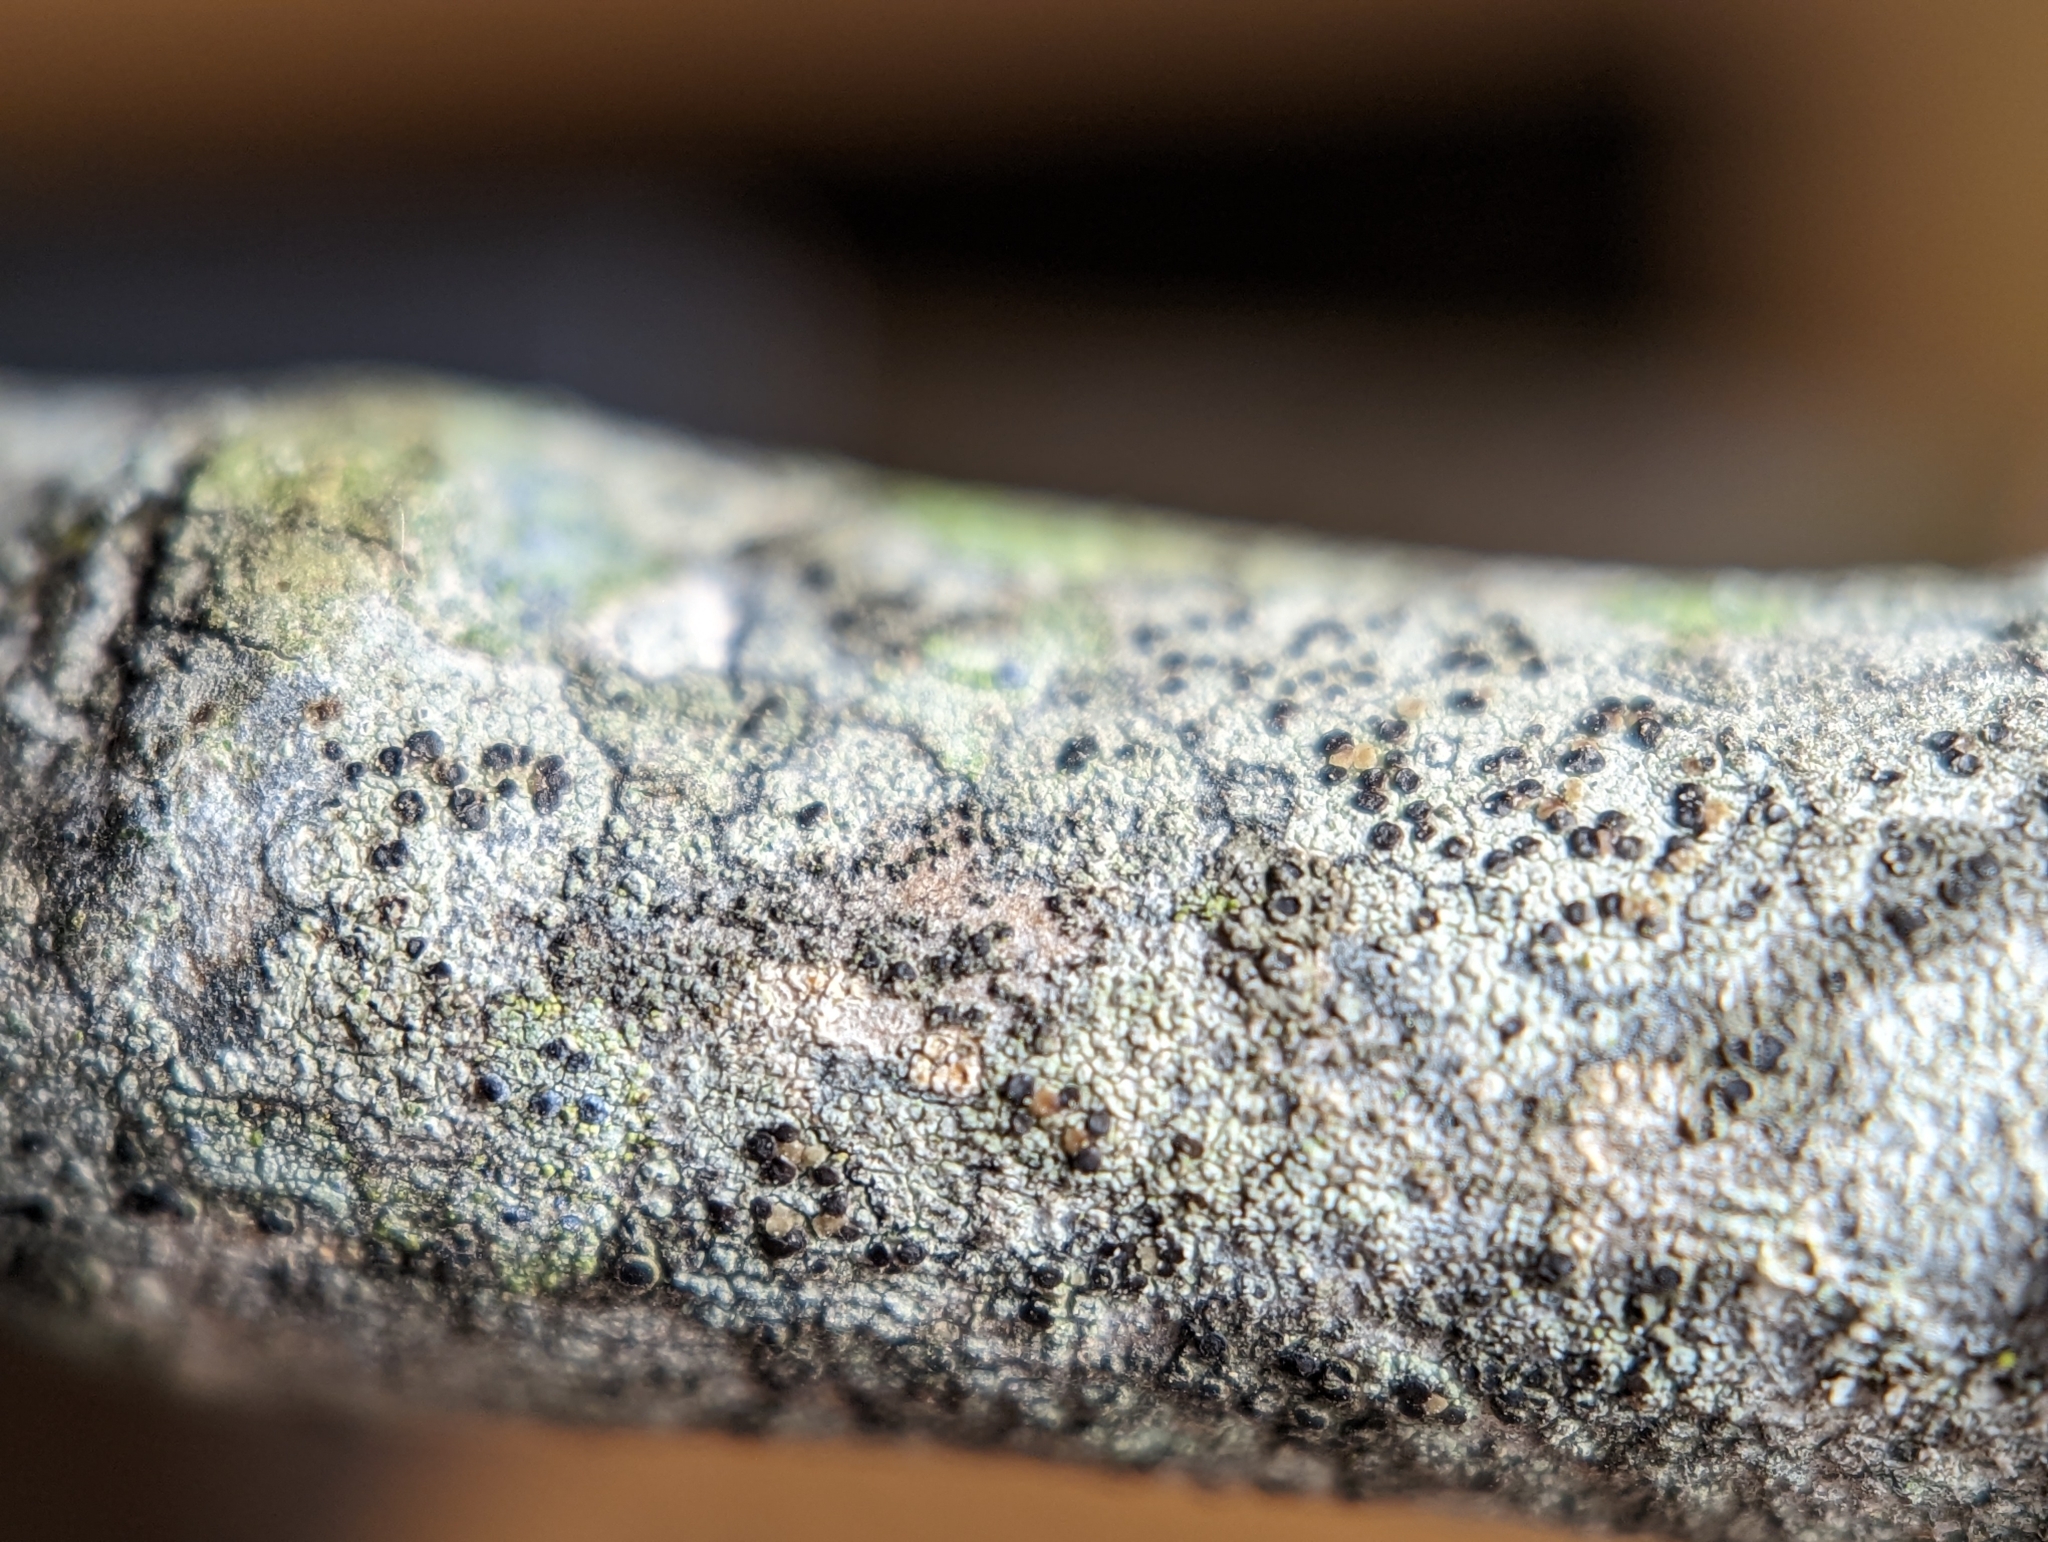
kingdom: Fungi
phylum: Ascomycota
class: Lecanoromycetes
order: Lecanorales
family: Lecanoraceae
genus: Traponora
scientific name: Traponora varians
